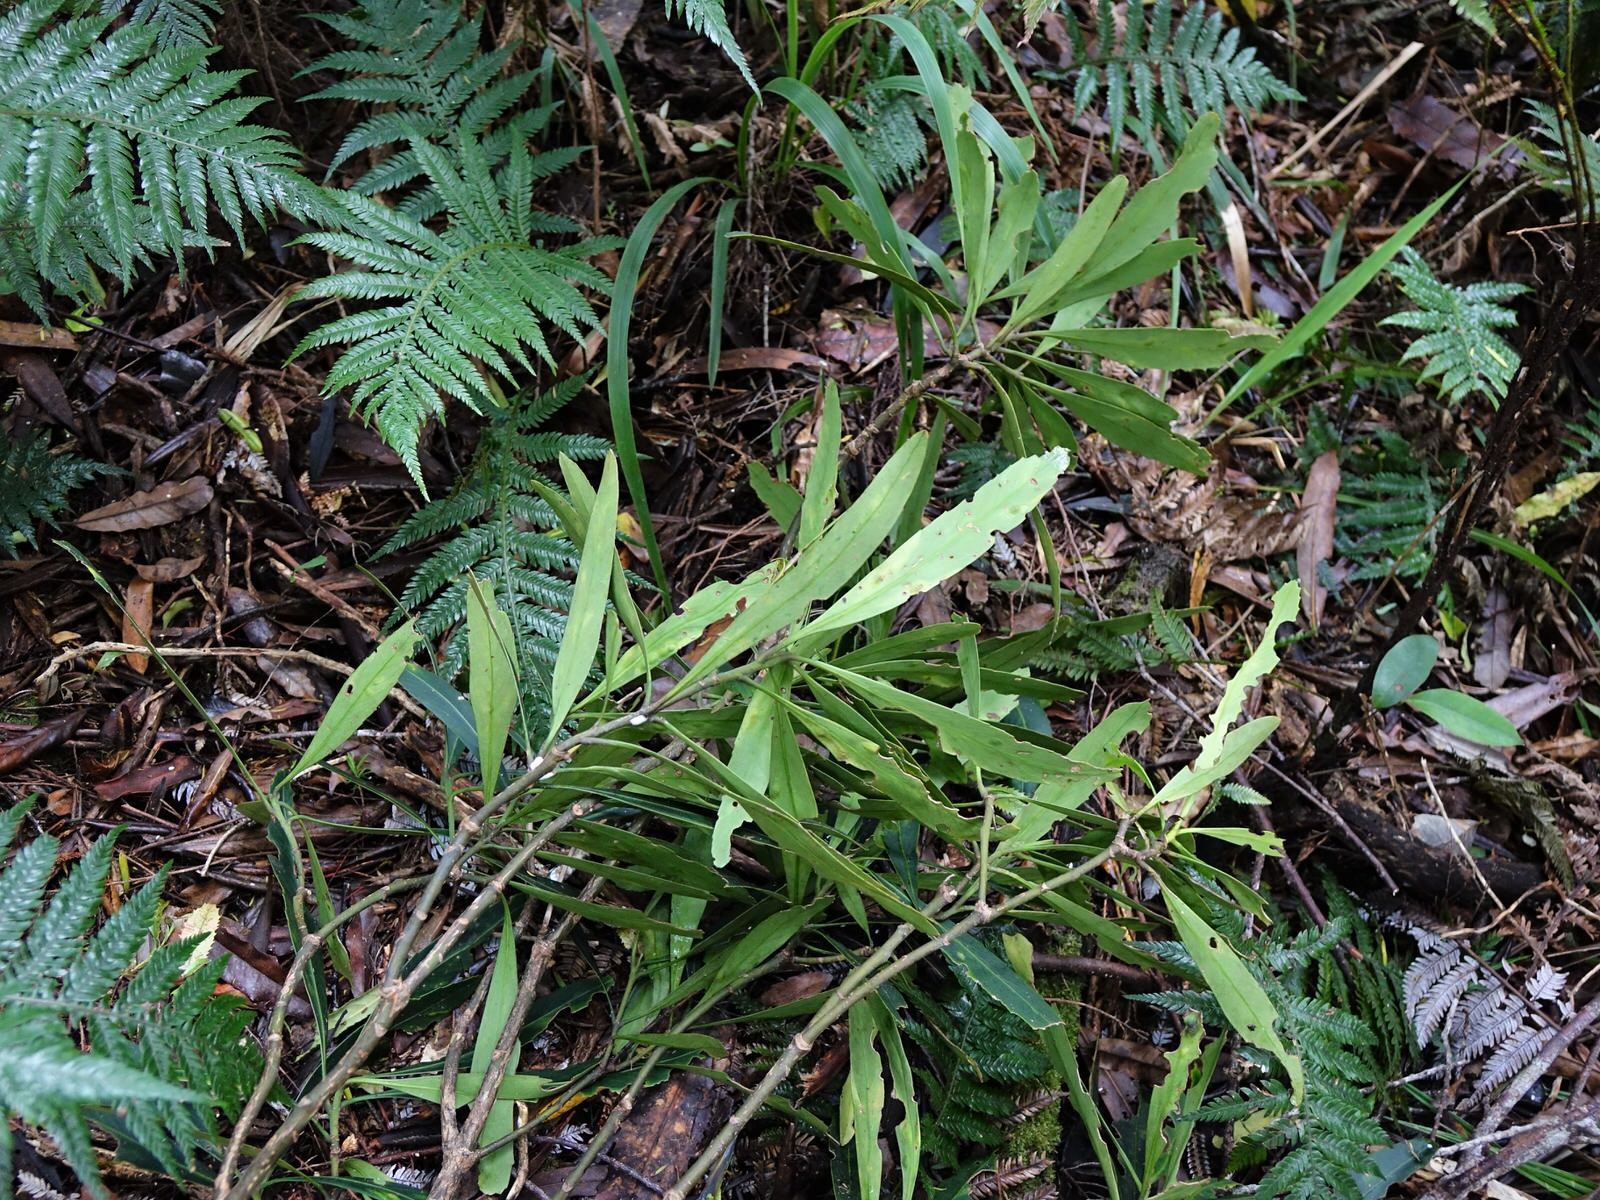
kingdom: Plantae
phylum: Tracheophyta
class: Magnoliopsida
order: Apiales
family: Araliaceae
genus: Pseudopanax
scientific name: Pseudopanax crassifolius
